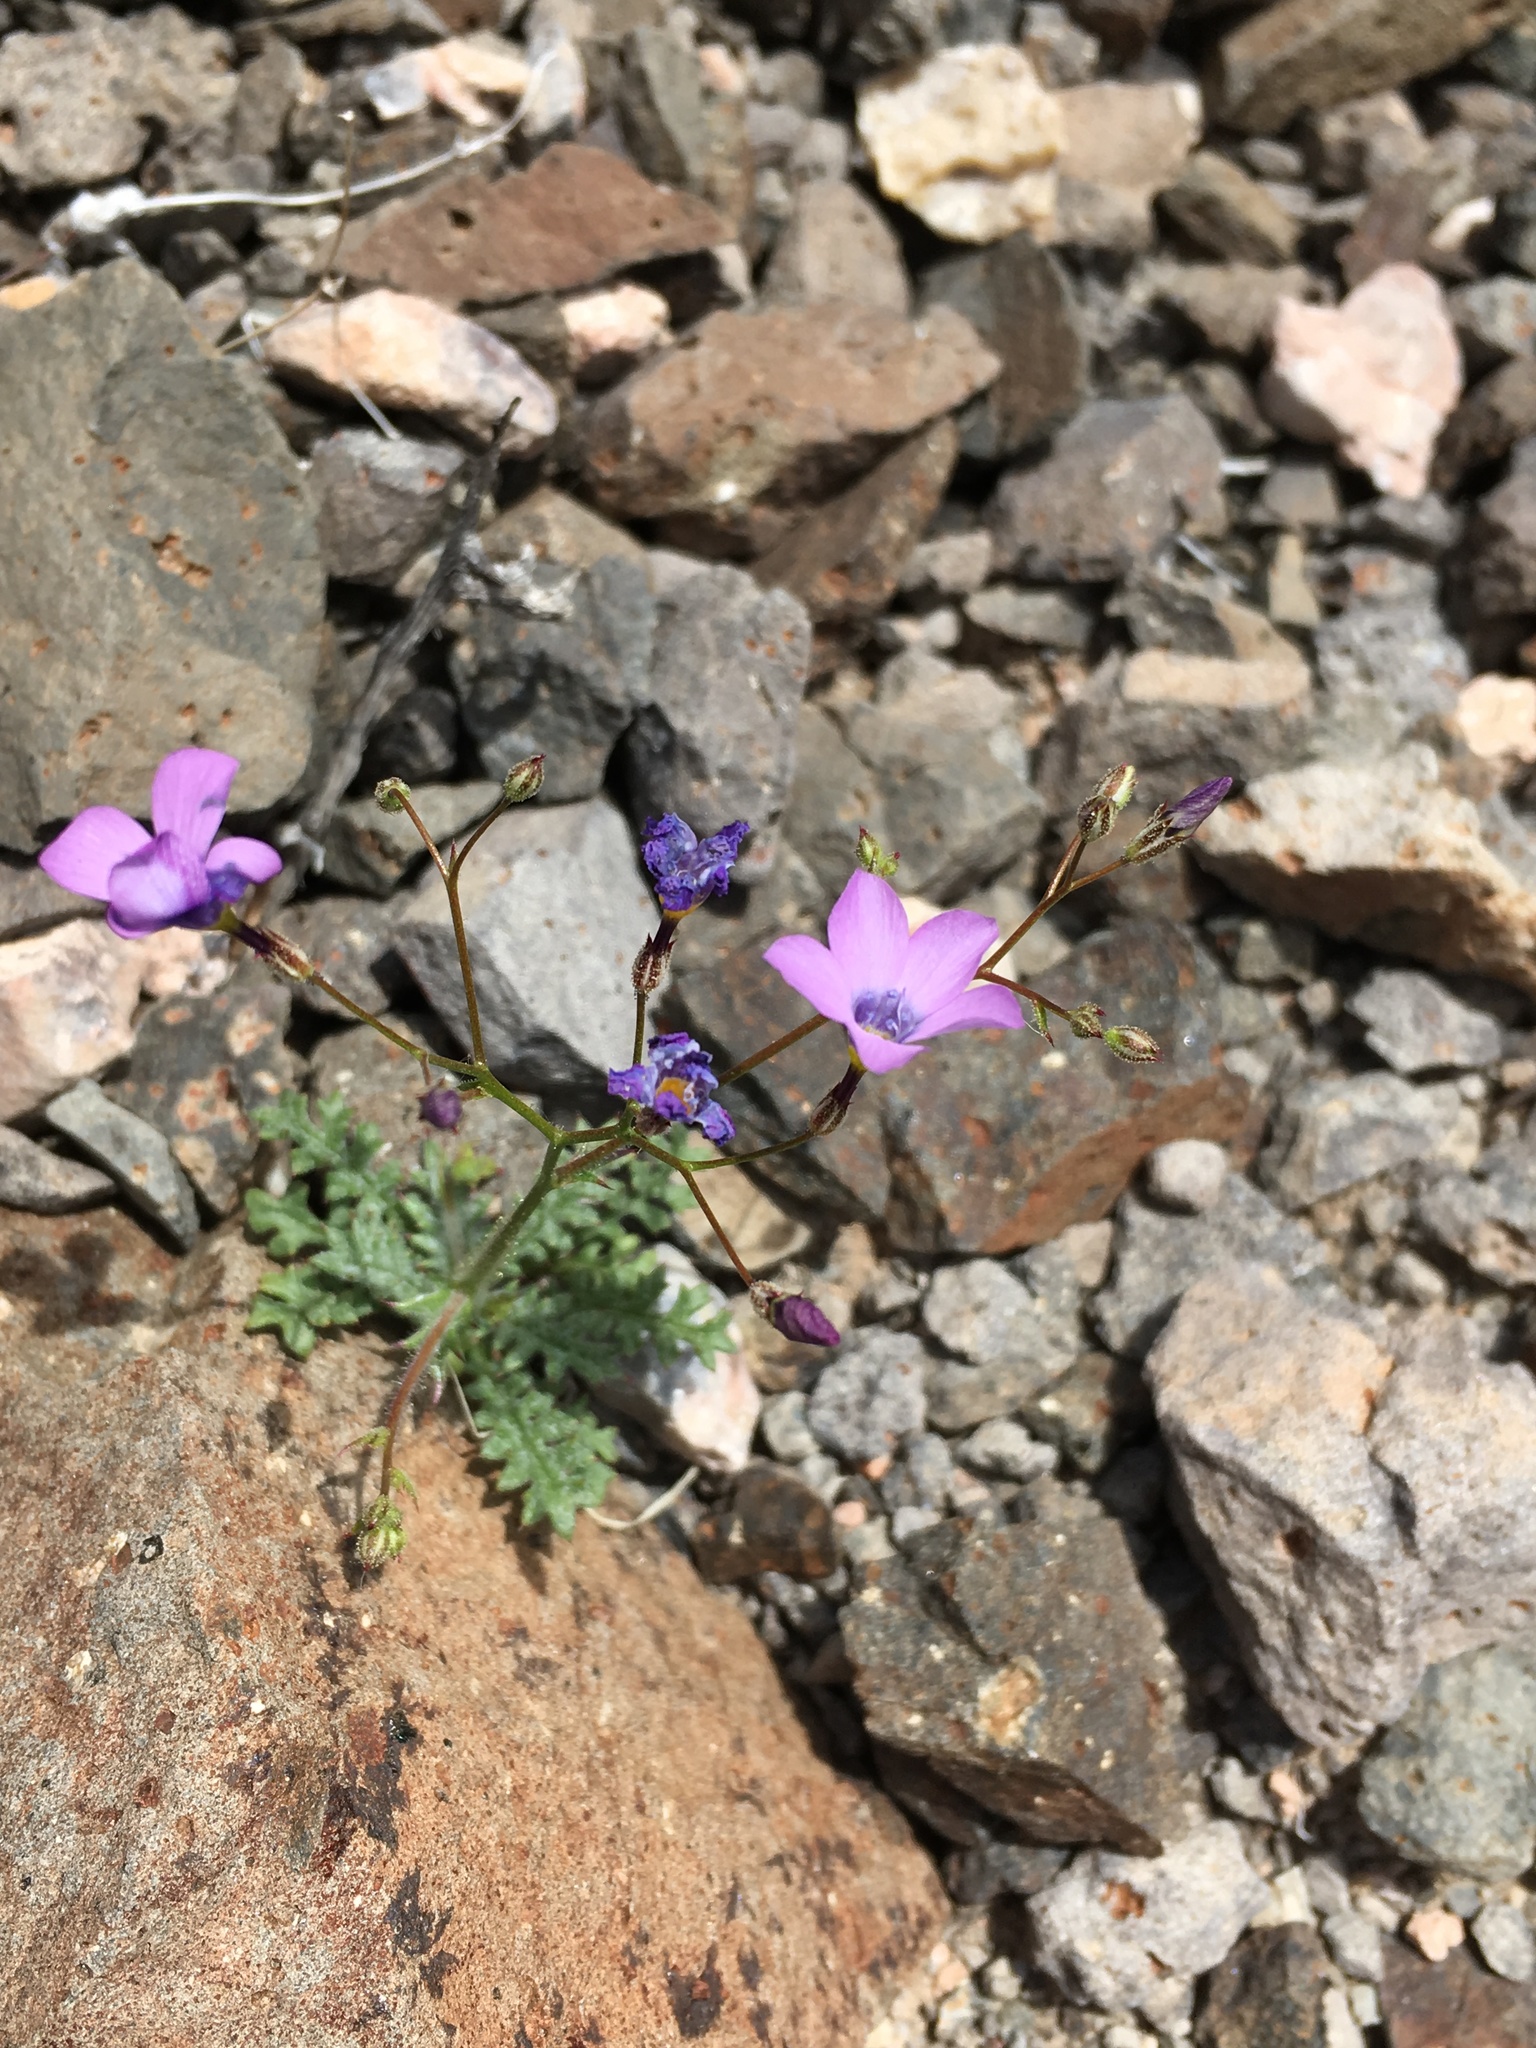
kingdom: Plantae
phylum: Tracheophyta
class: Magnoliopsida
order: Ericales
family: Polemoniaceae
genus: Gilia
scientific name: Gilia cana
